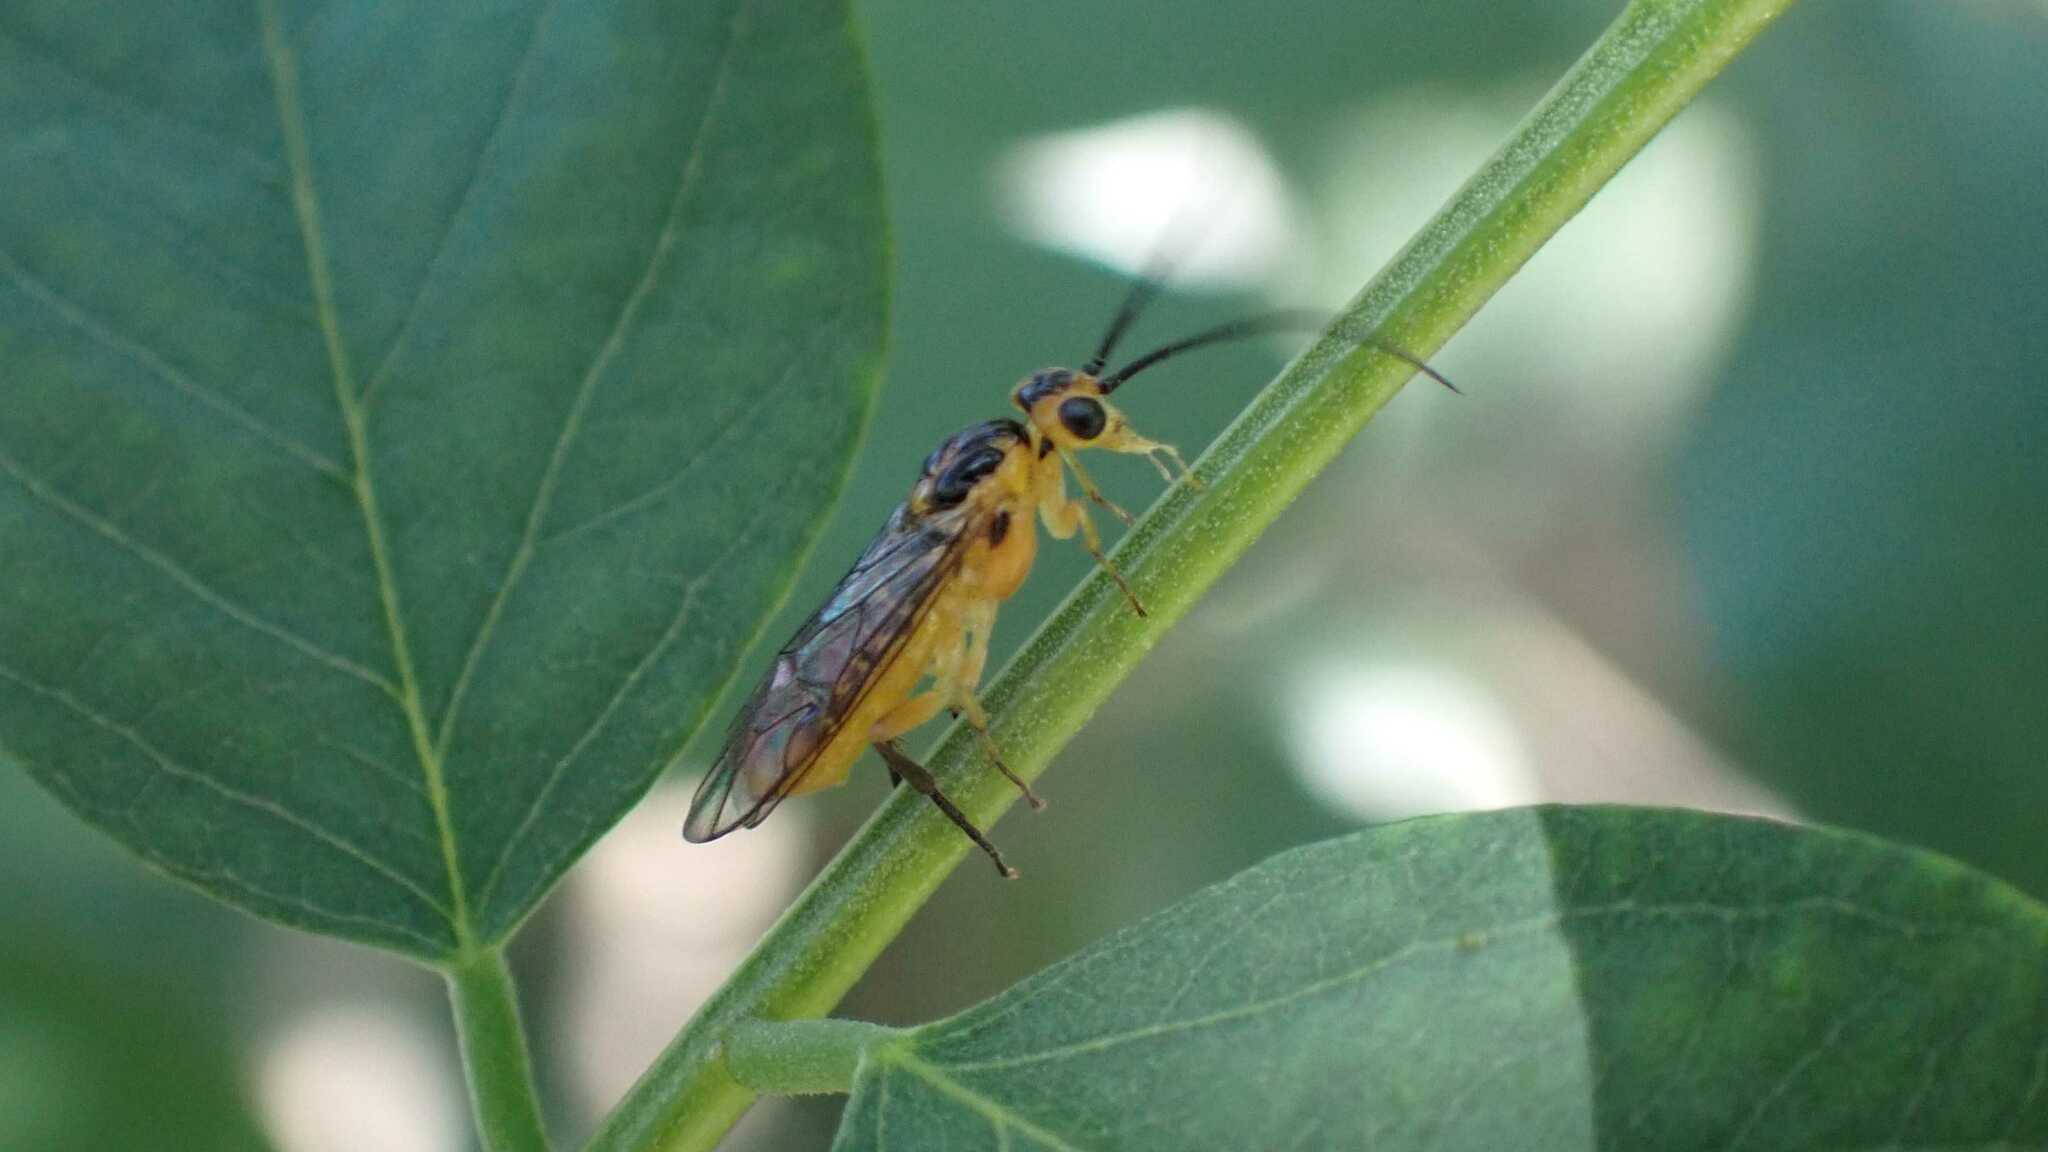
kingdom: Animalia
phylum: Arthropoda
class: Insecta
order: Hymenoptera
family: Tenthredinidae
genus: Euura
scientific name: Euura tibialis
